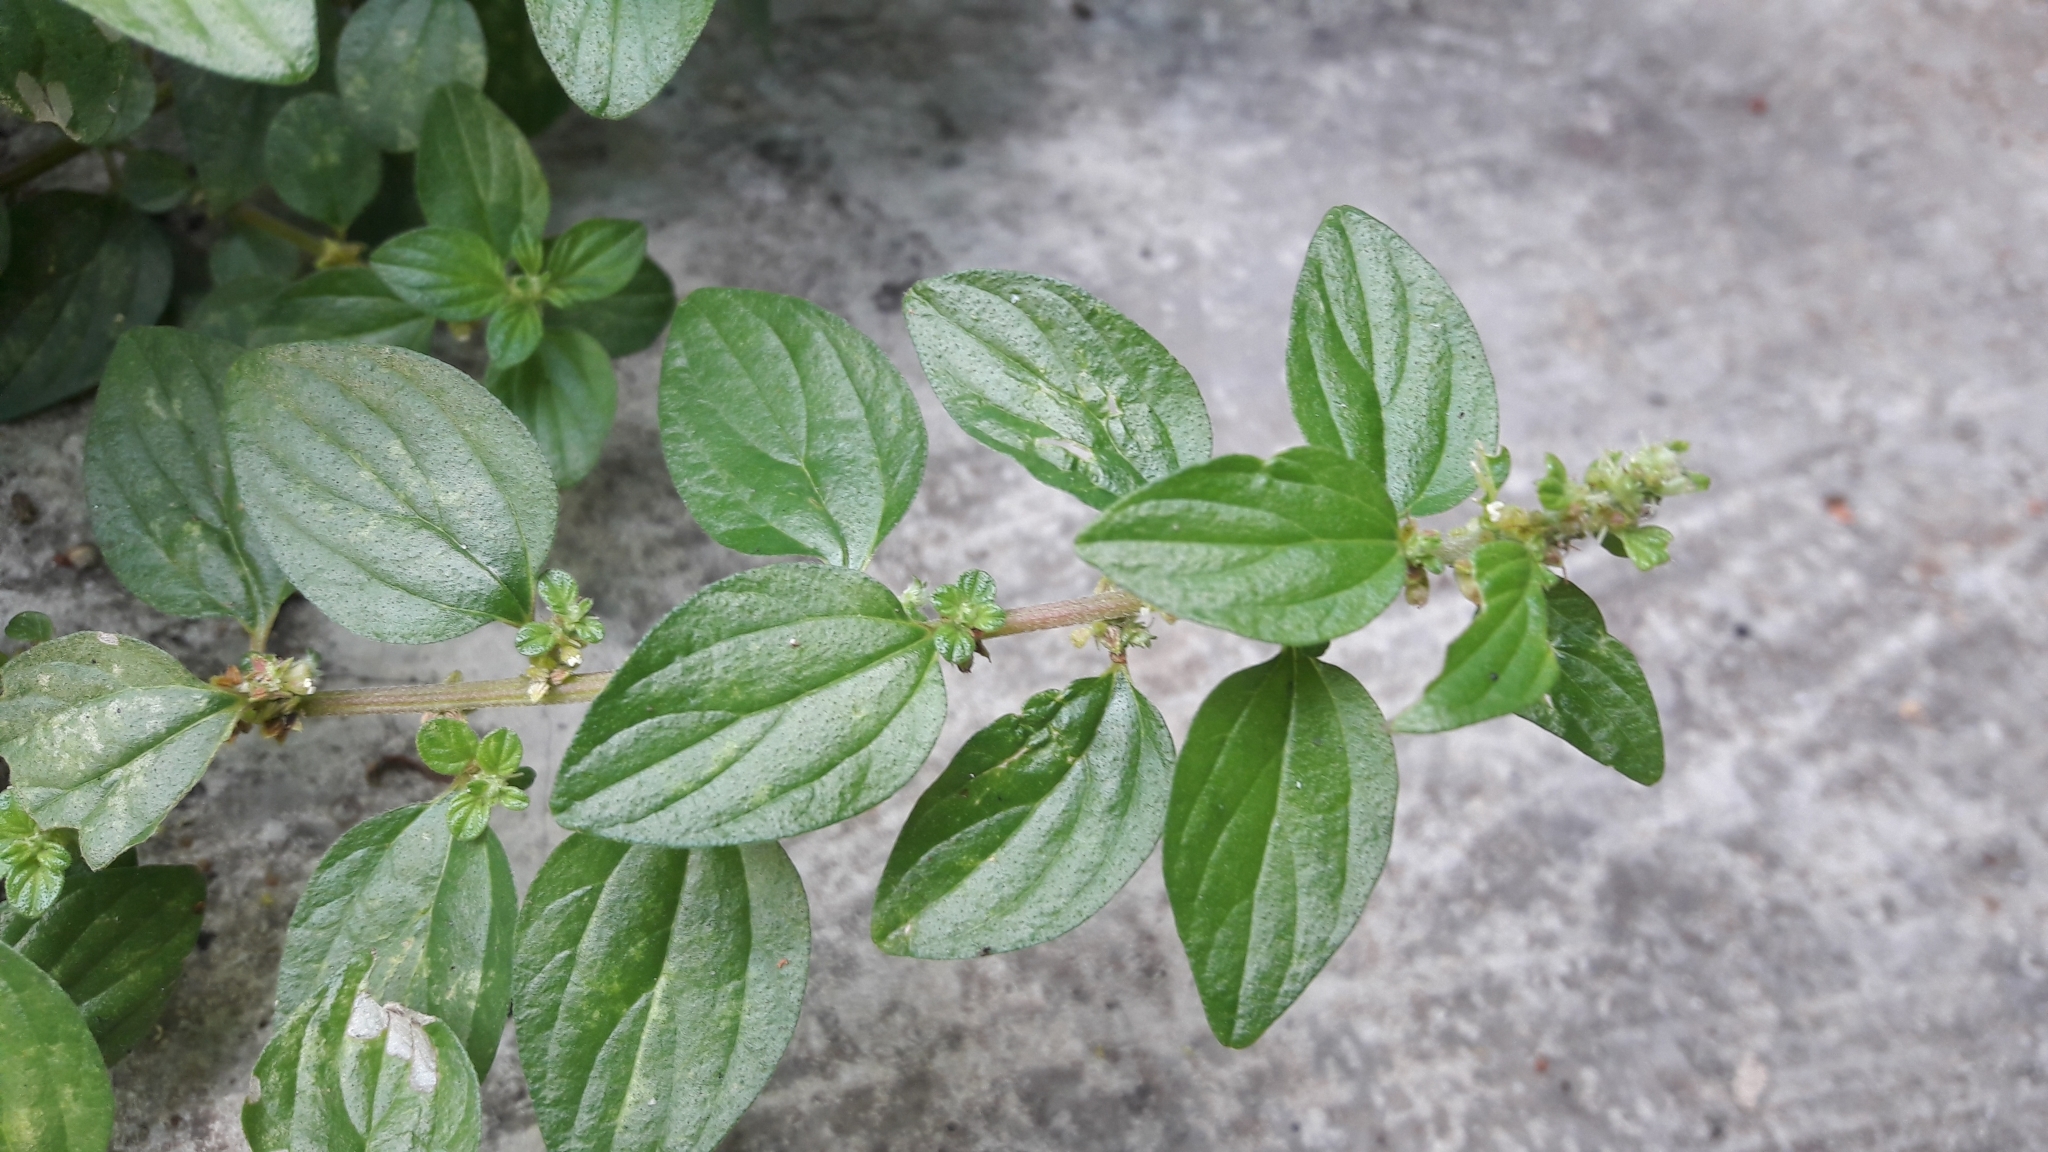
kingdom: Plantae
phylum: Tracheophyta
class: Magnoliopsida
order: Rosales
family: Urticaceae
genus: Pouzolzia
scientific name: Pouzolzia zeylanica
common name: Graceful pouzolzsbush
